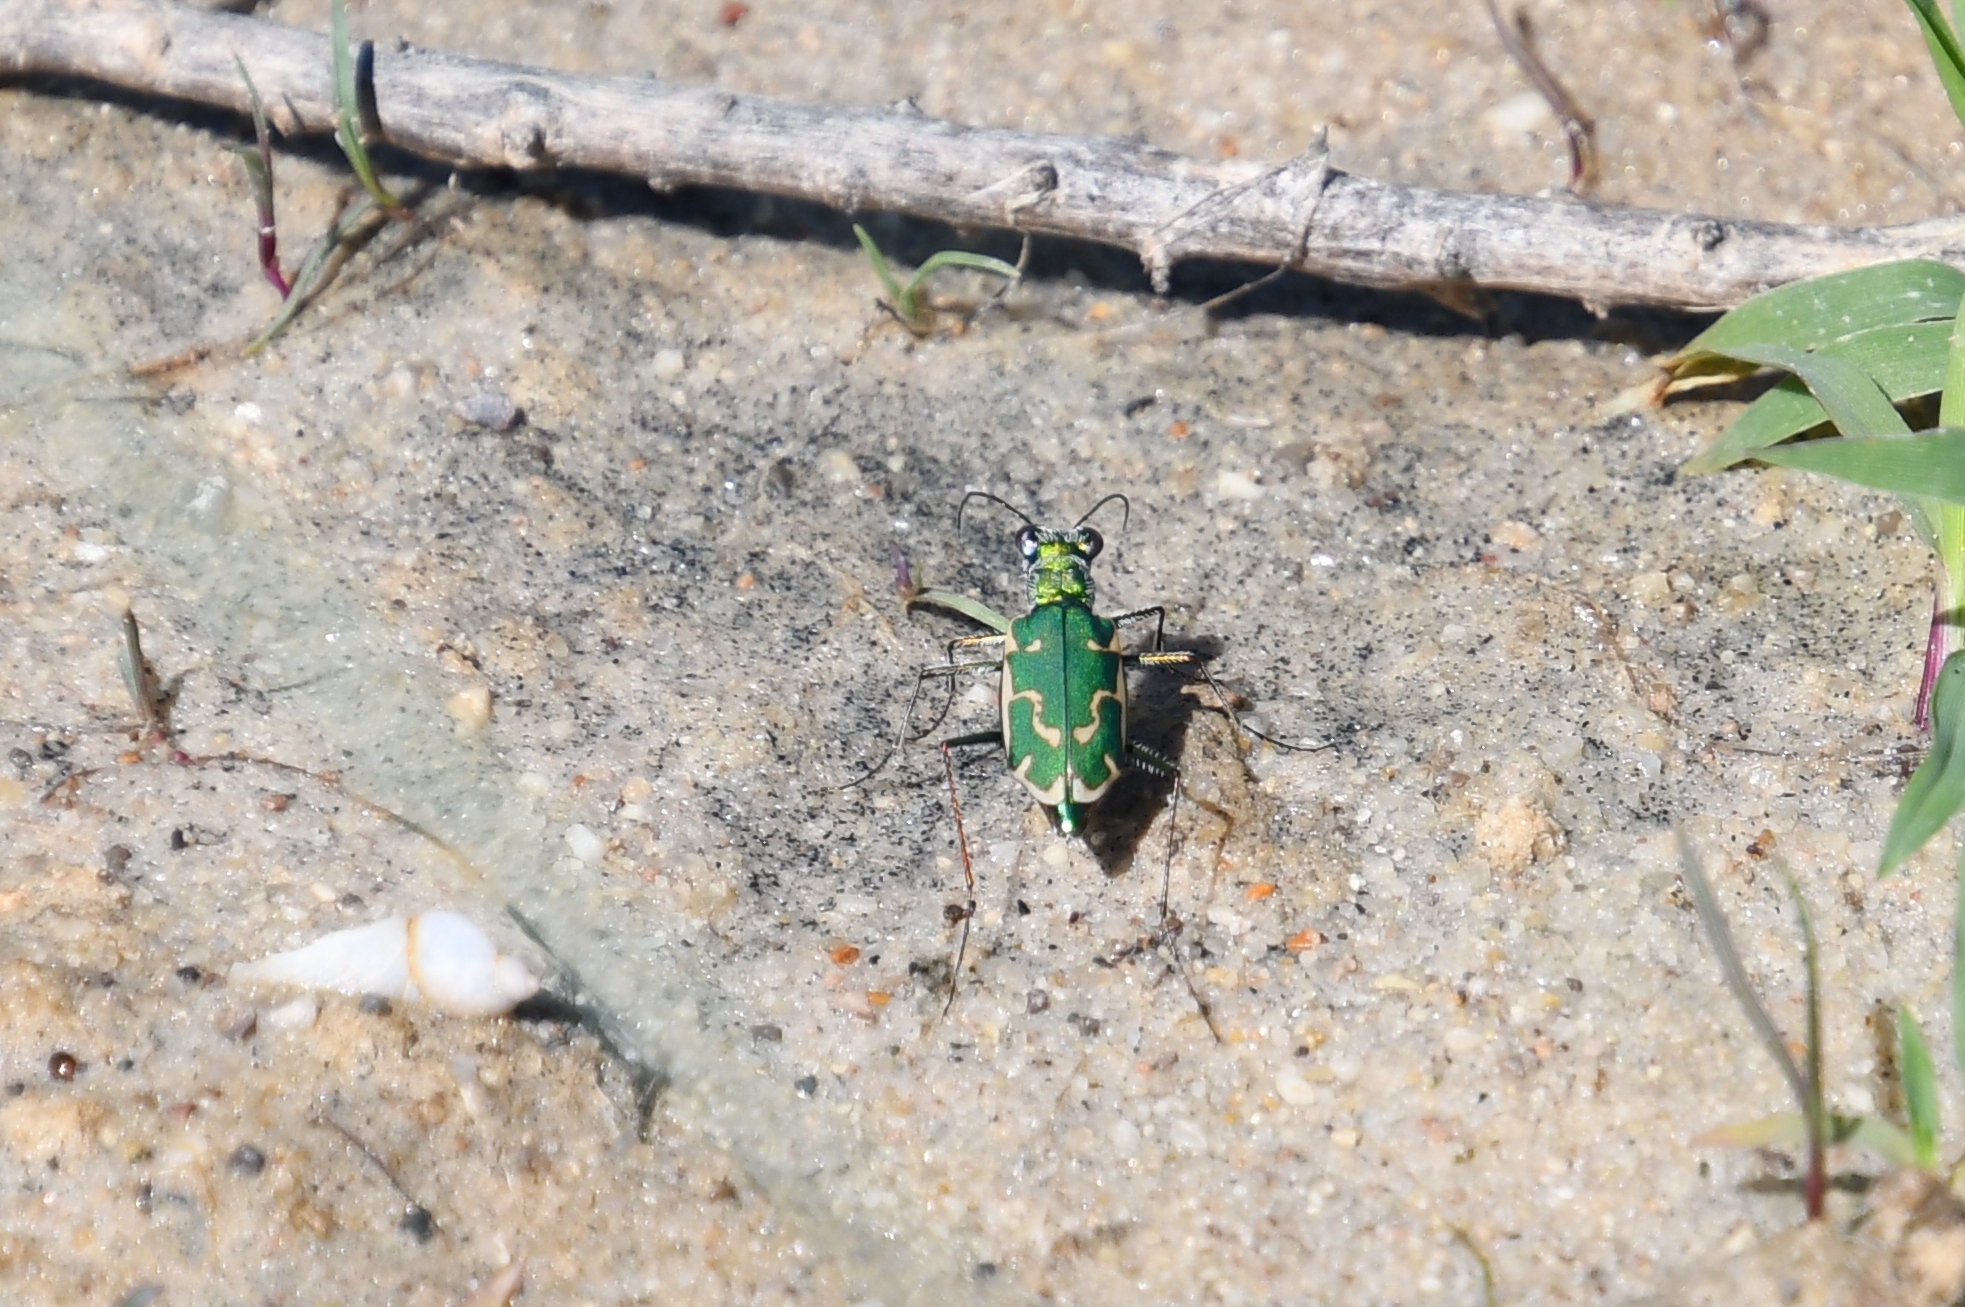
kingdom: Animalia
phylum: Arthropoda
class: Insecta
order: Coleoptera
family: Carabidae
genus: Ellipsoptera
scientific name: Ellipsoptera rubicunda
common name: Aridland tiger beetle
